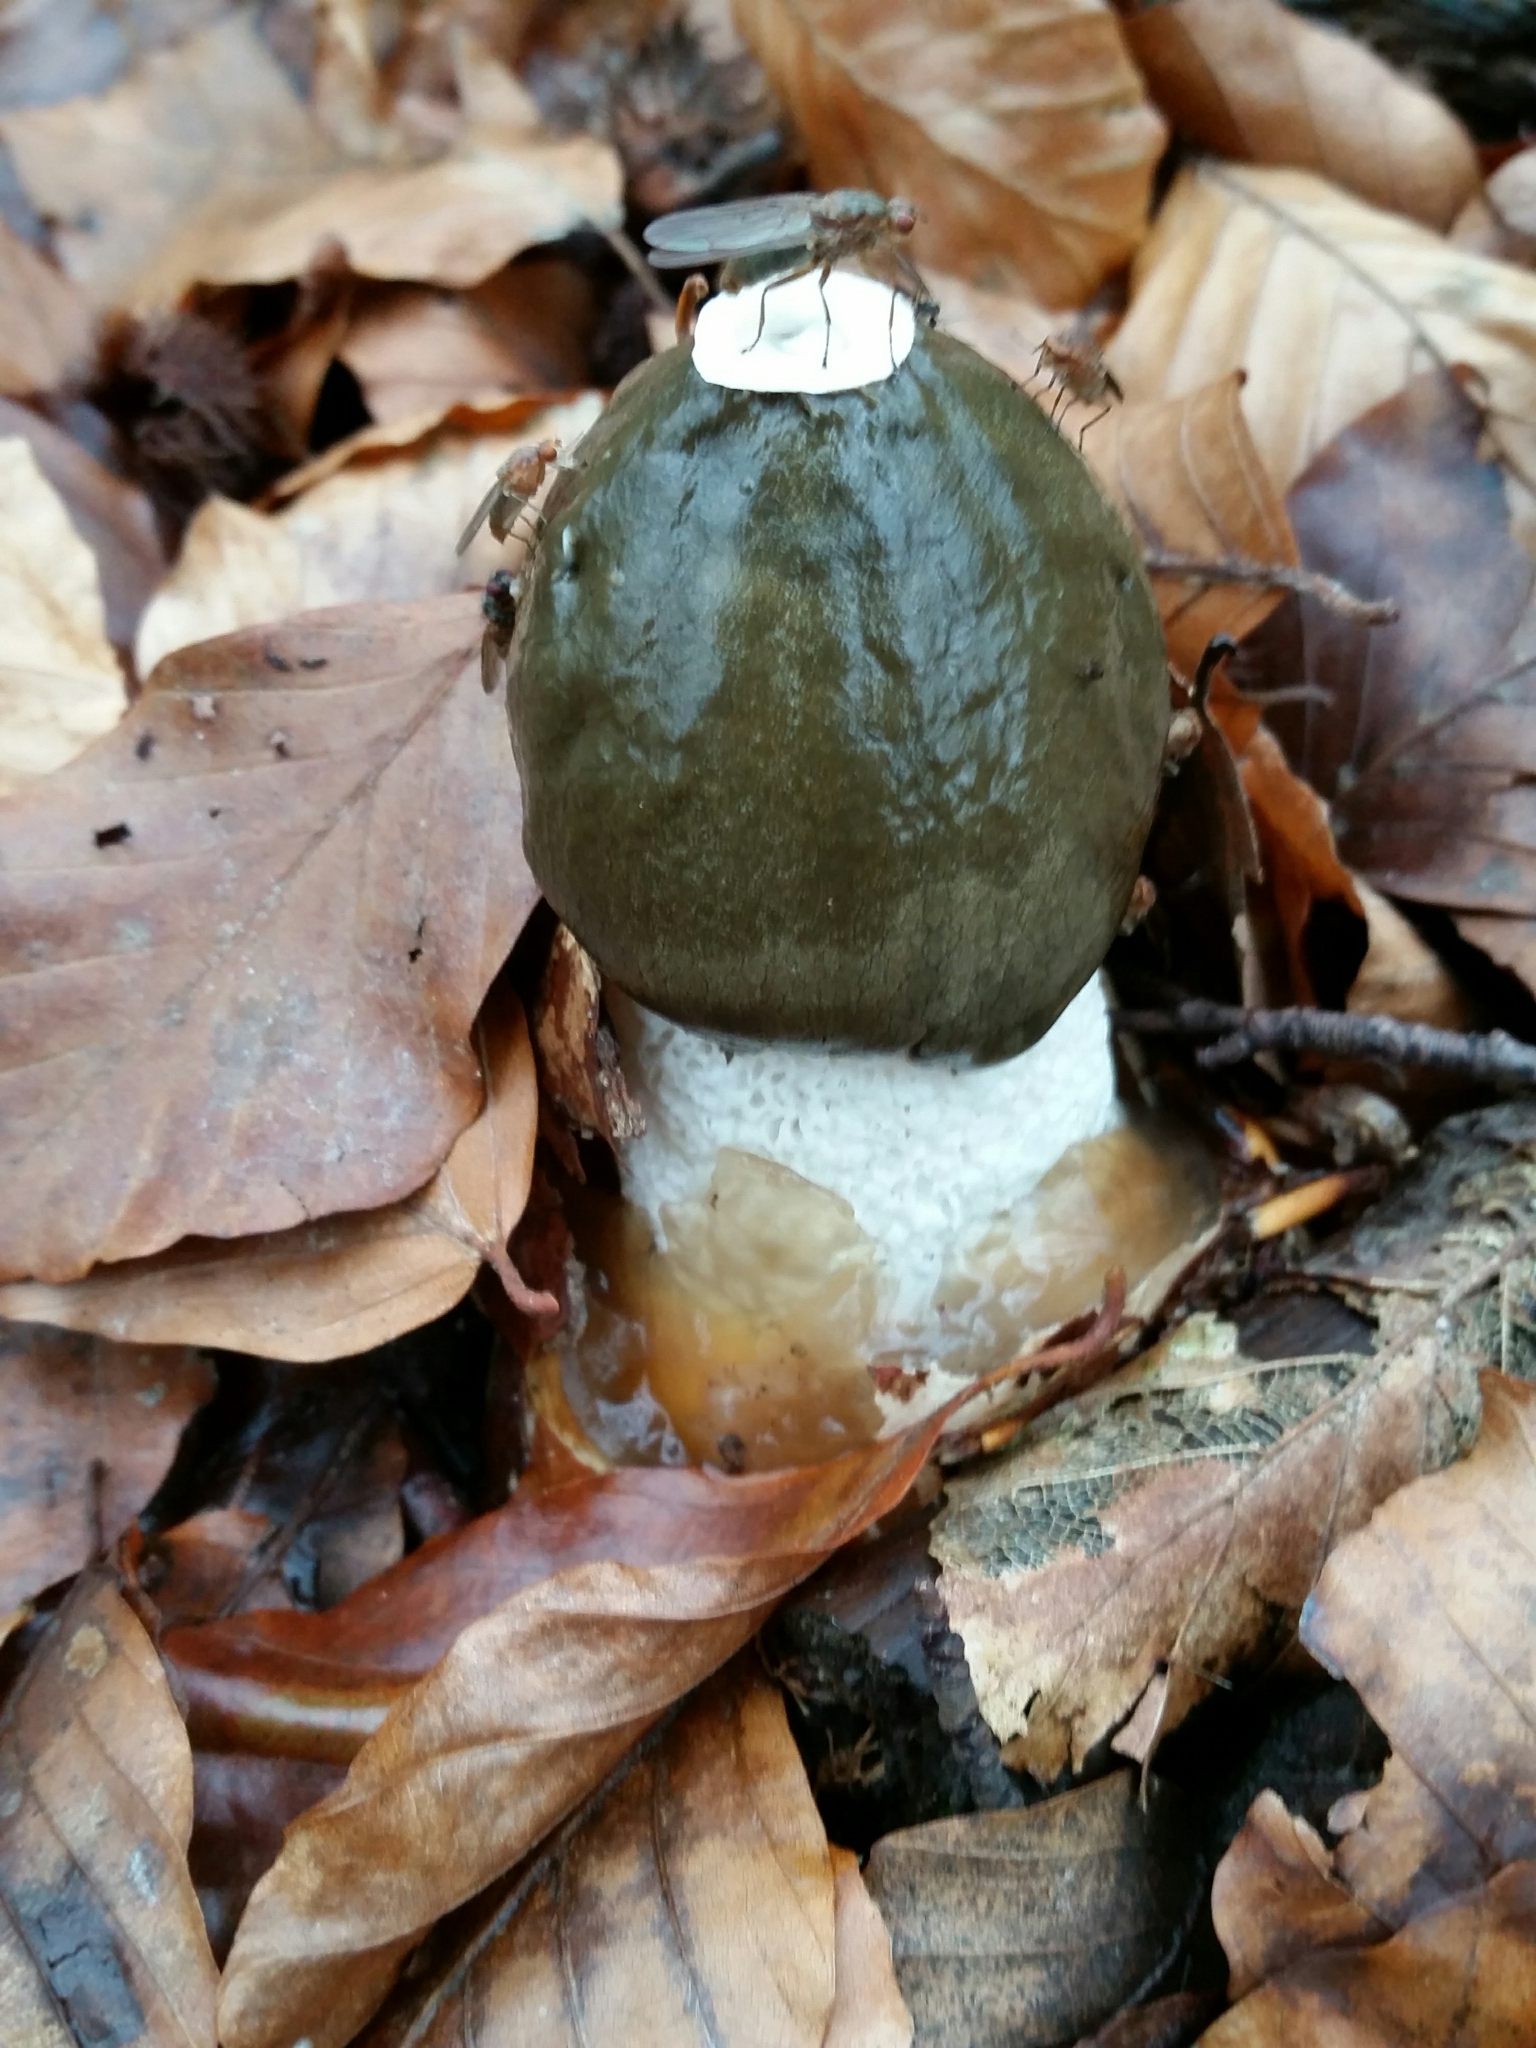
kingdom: Fungi
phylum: Basidiomycota
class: Agaricomycetes
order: Phallales
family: Phallaceae
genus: Phallus
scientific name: Phallus impudicus
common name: Common stinkhorn
